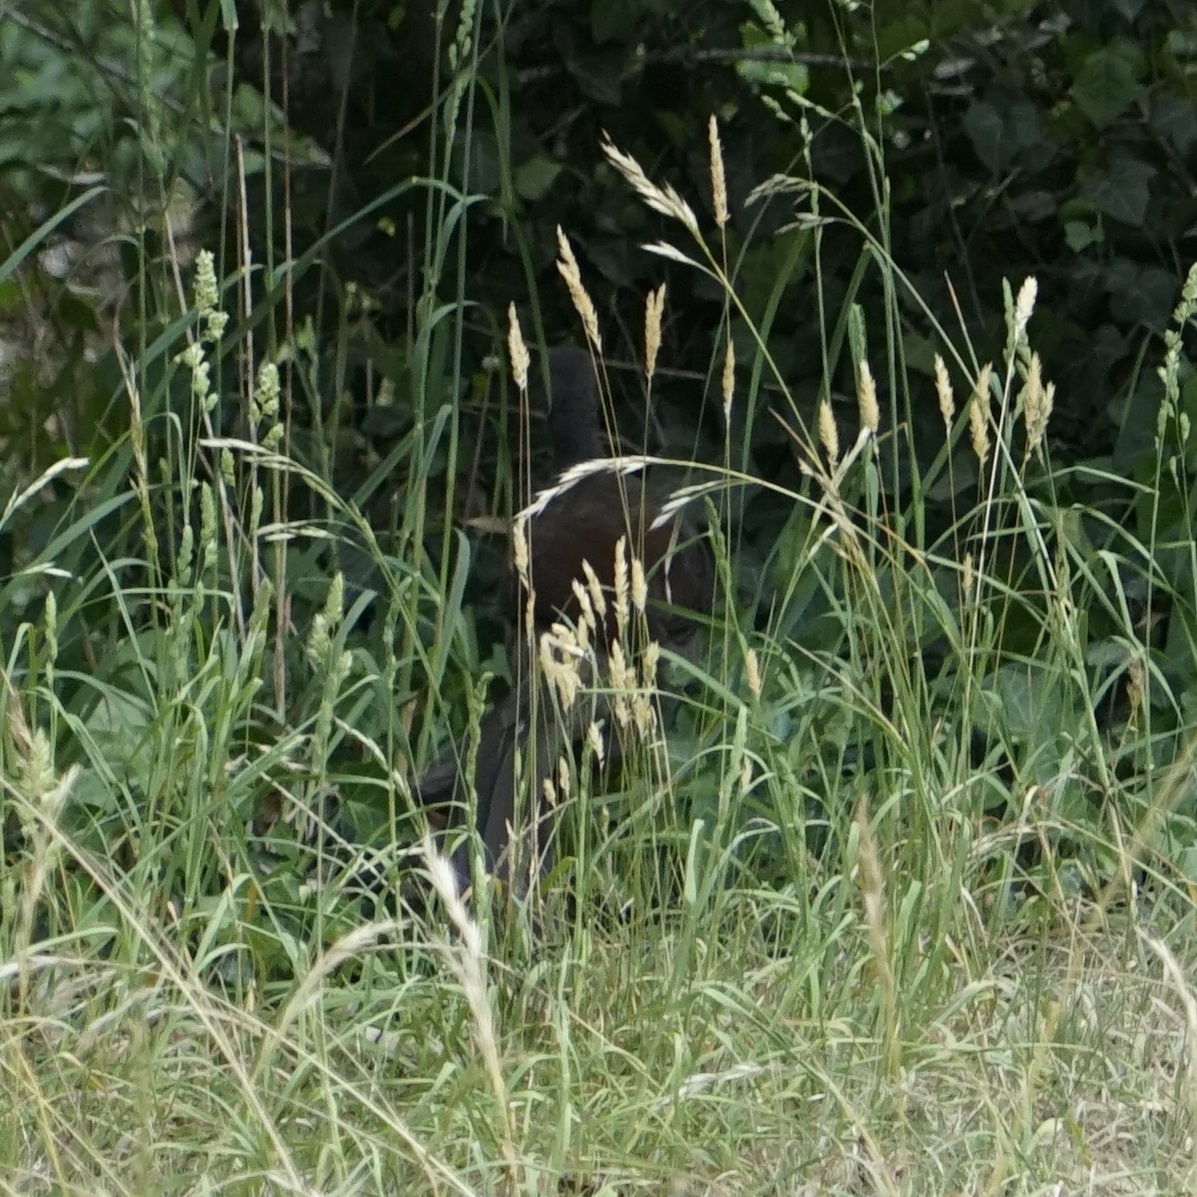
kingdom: Animalia
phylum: Chordata
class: Aves
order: Passeriformes
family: Menuridae
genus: Menura
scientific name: Menura novaehollandiae
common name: Superb lyrebird
